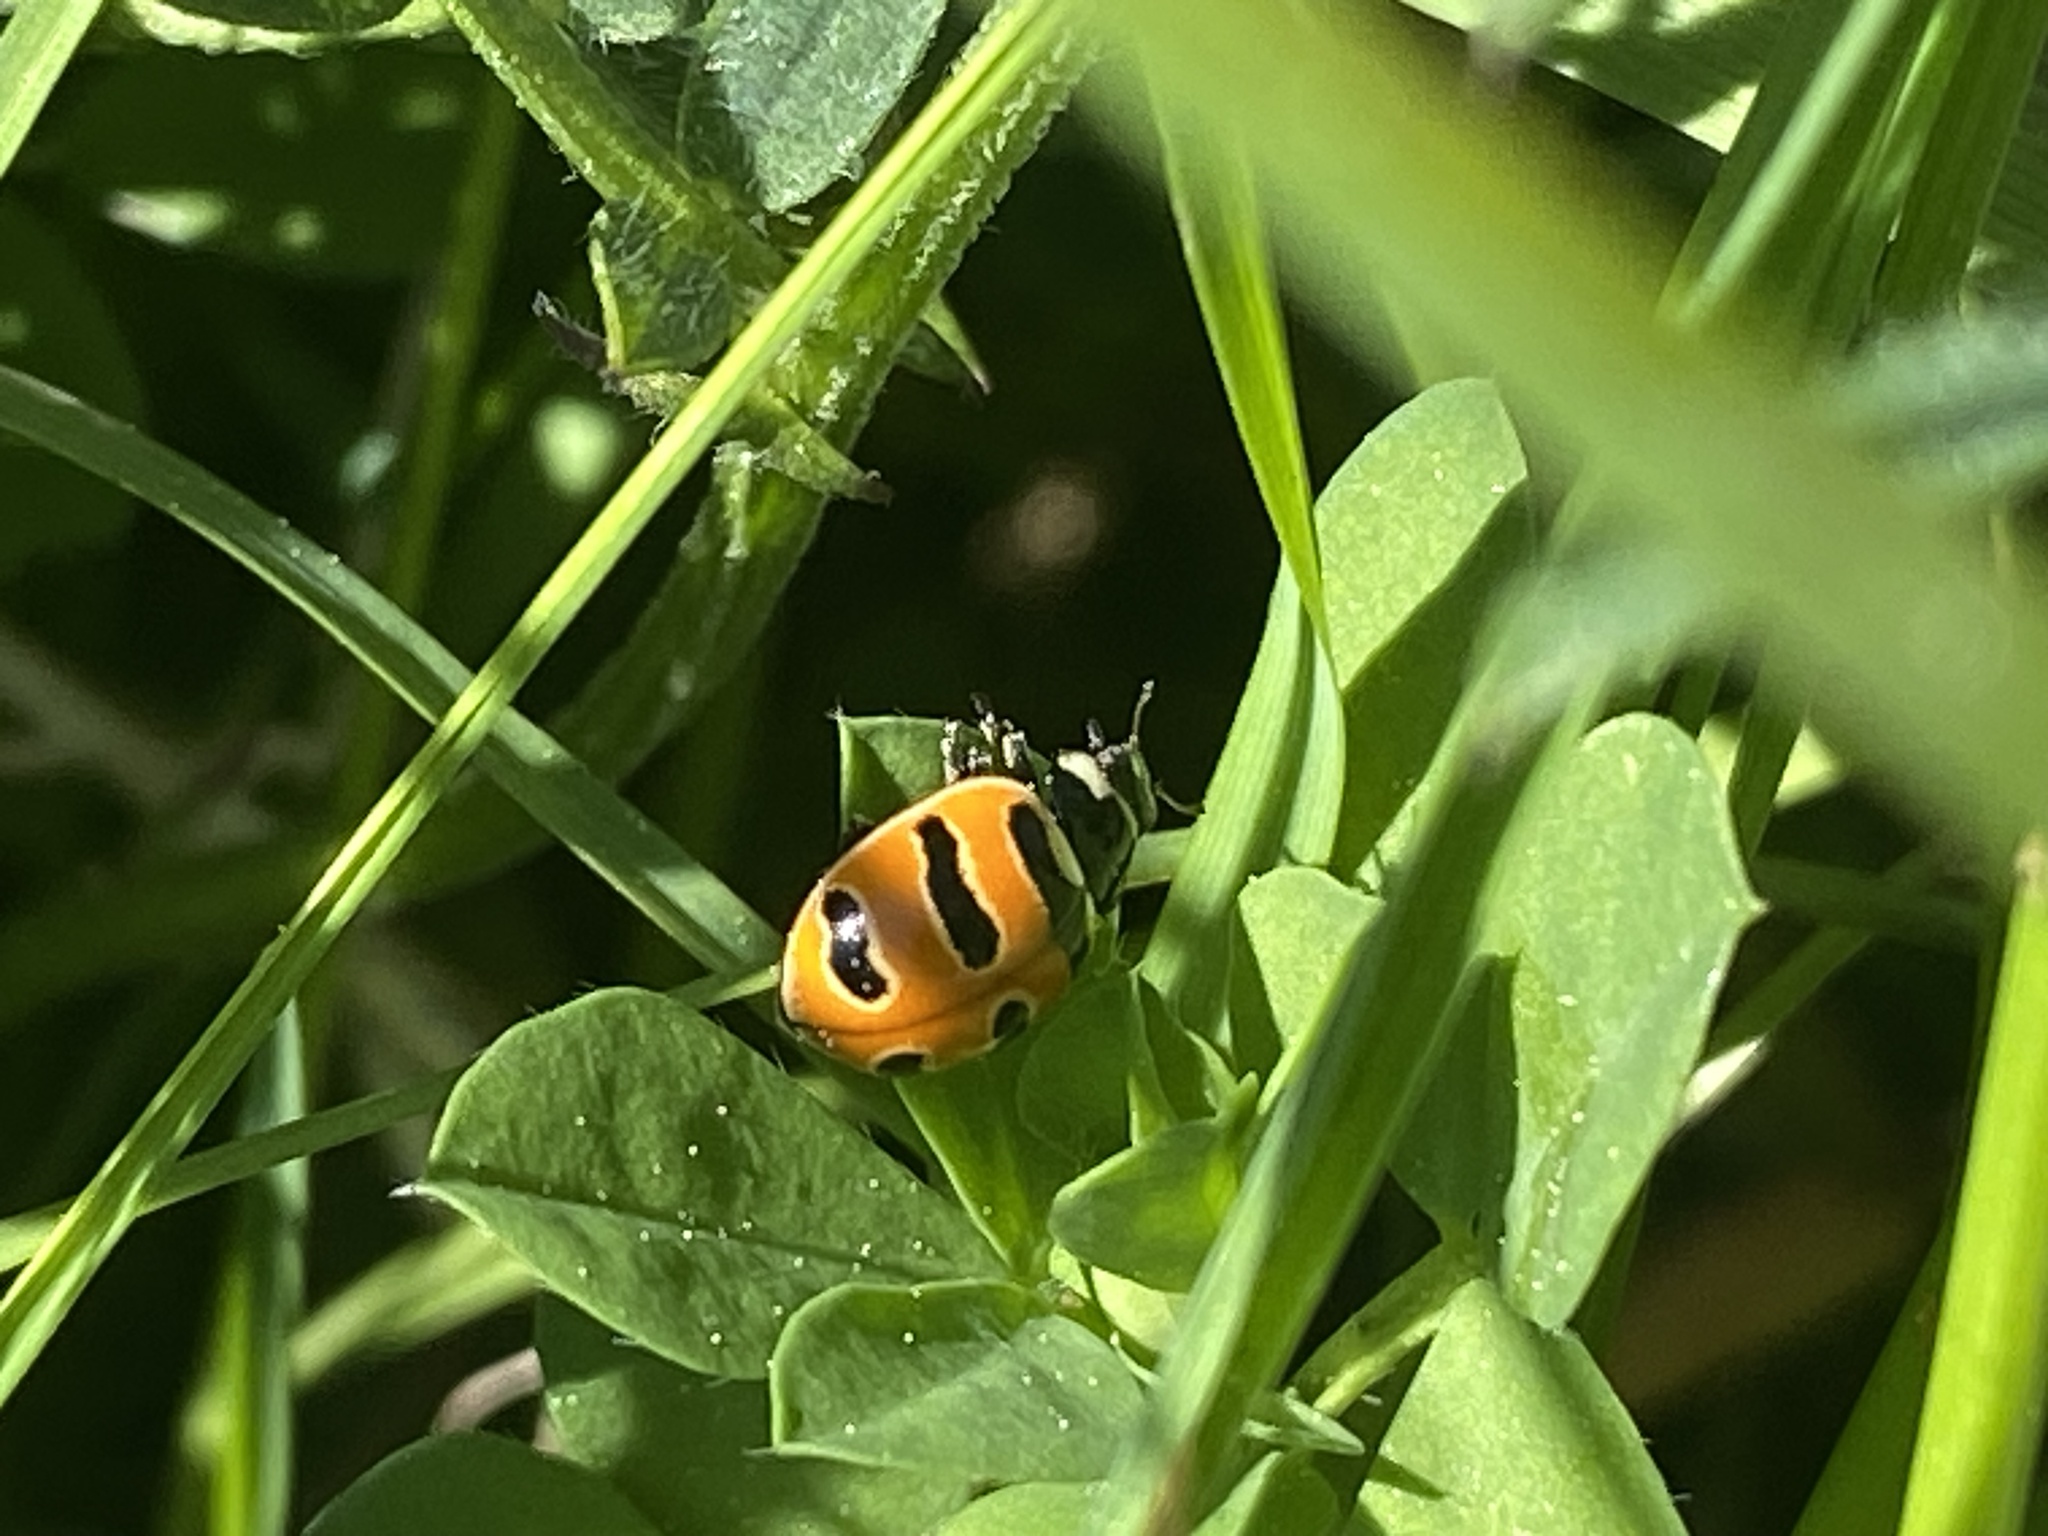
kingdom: Animalia
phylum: Arthropoda
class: Insecta
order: Coleoptera
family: Coccinellidae
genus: Coccinella
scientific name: Coccinella trifasciata
